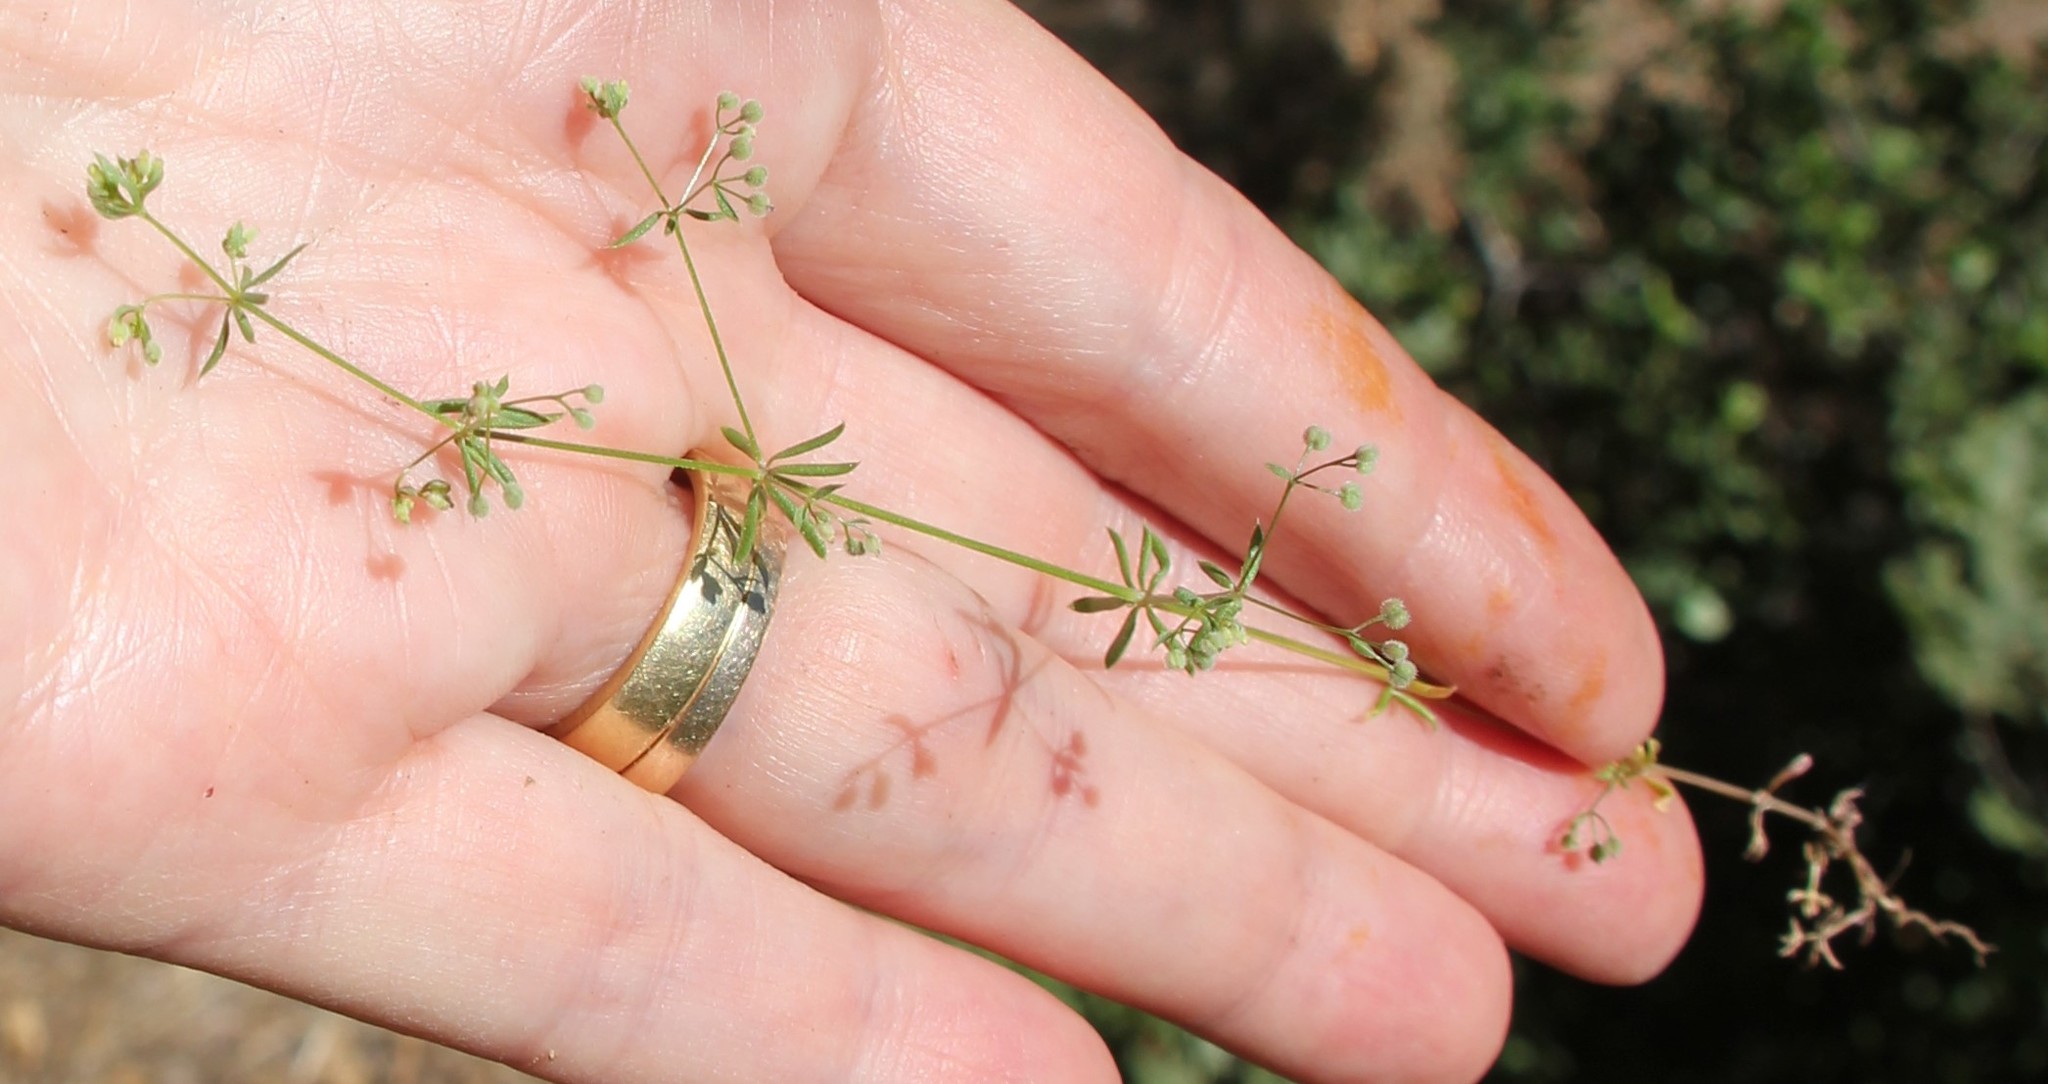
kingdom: Plantae
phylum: Tracheophyta
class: Magnoliopsida
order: Gentianales
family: Rubiaceae
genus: Galium
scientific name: Galium parisiense
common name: Wall bedstraw
